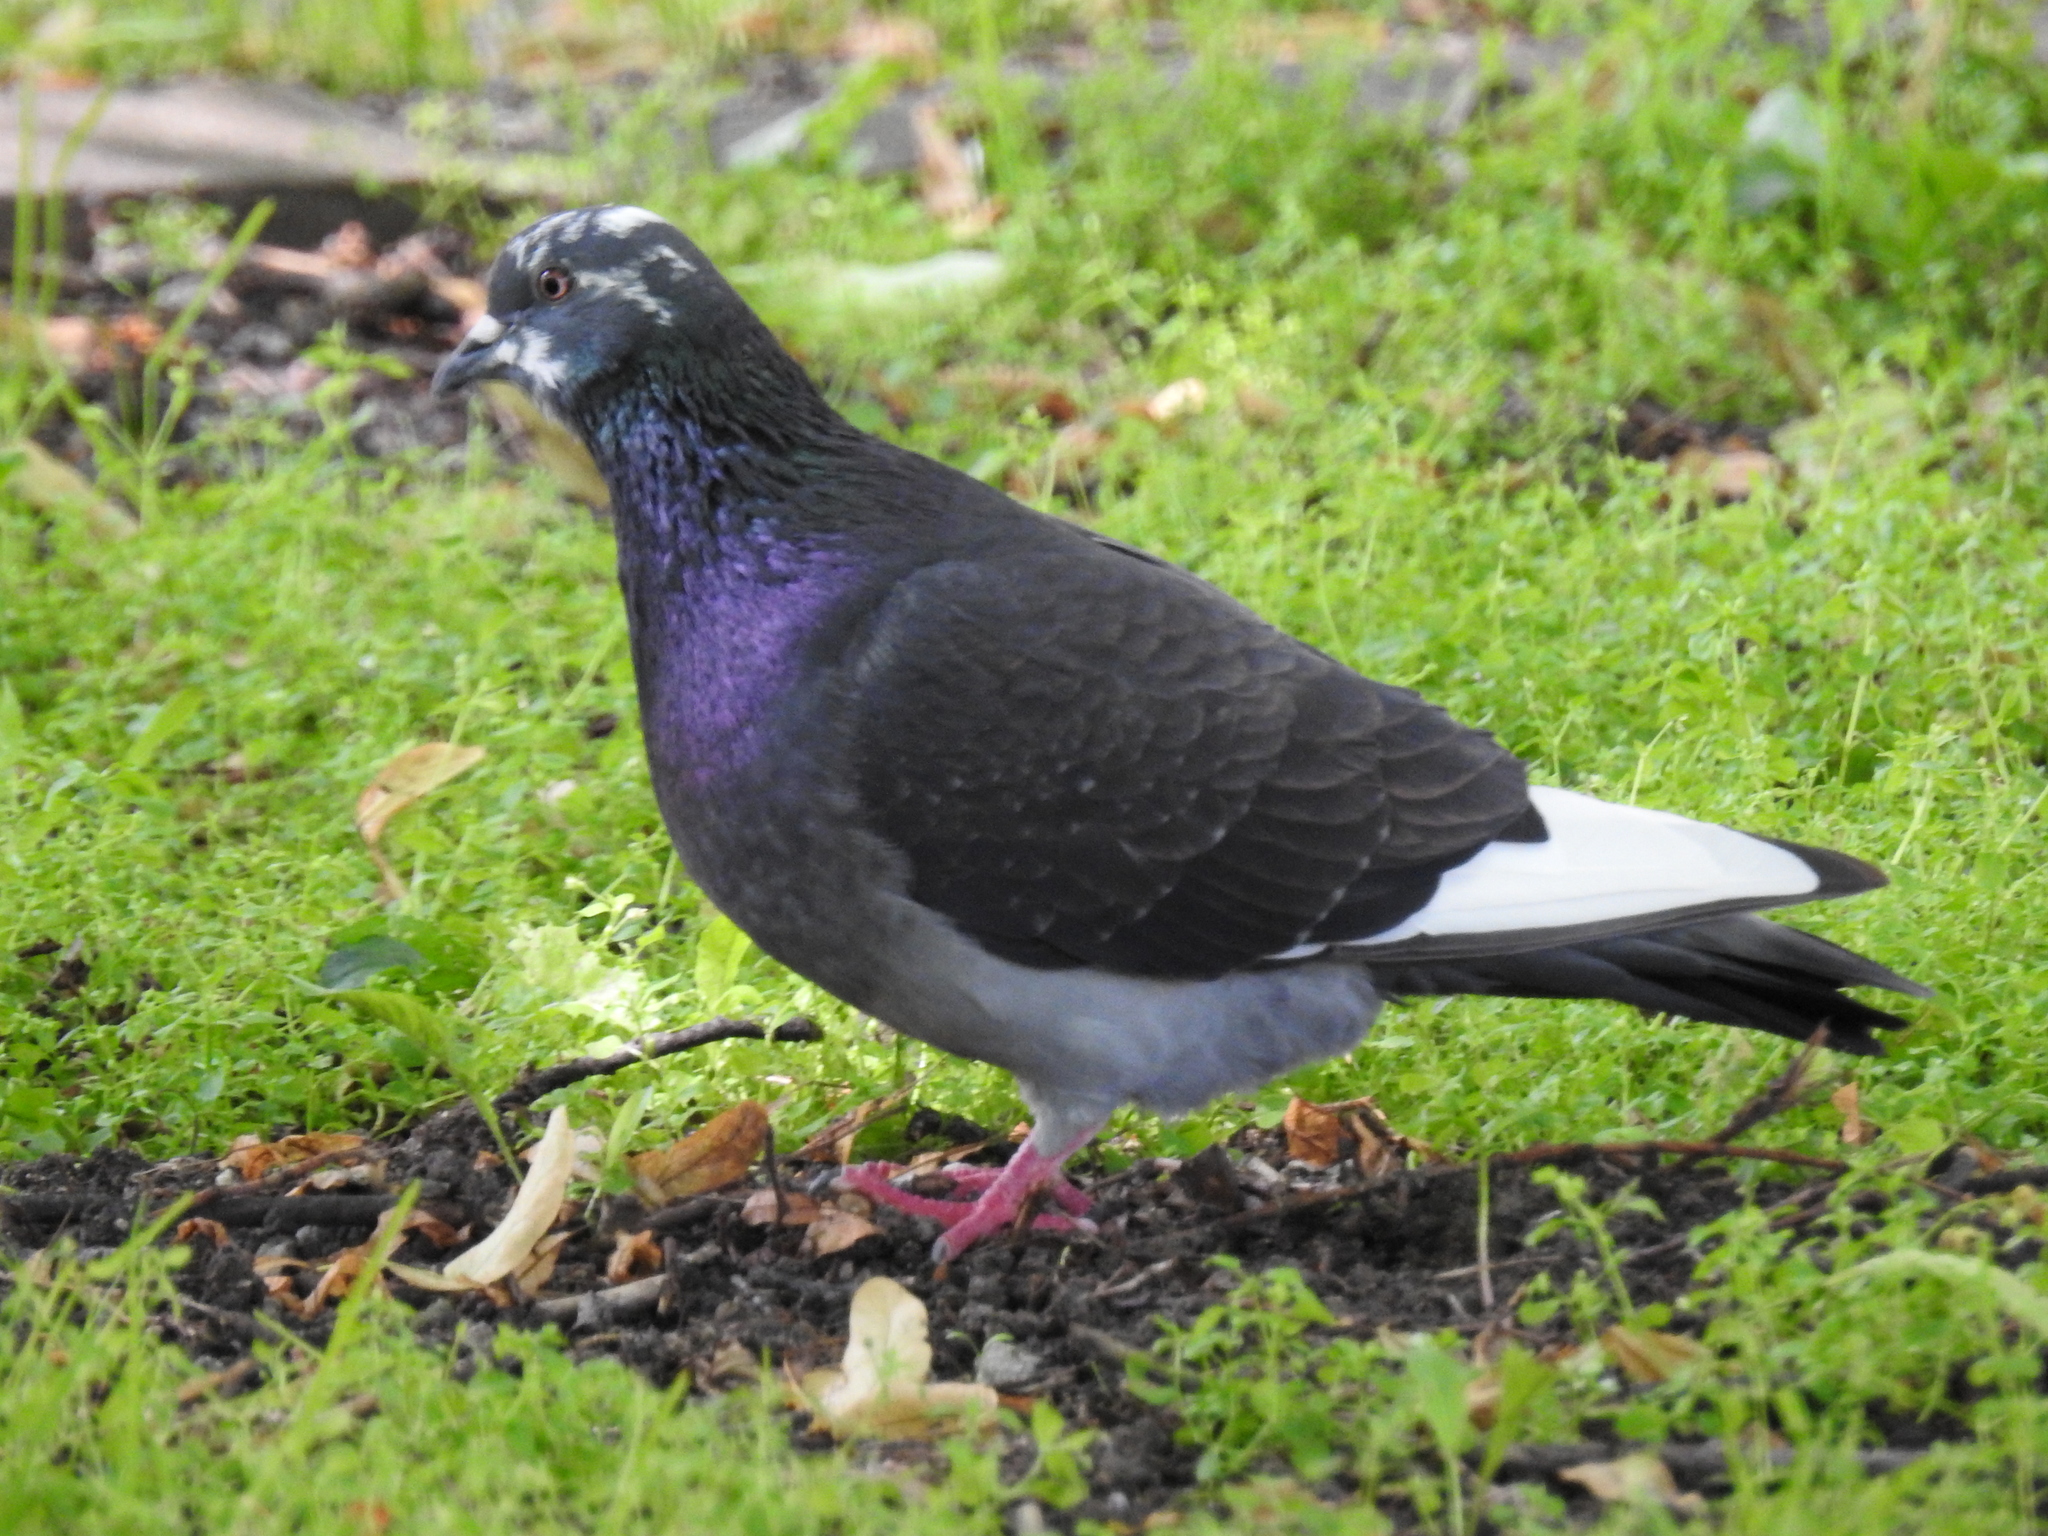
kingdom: Animalia
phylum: Chordata
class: Aves
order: Columbiformes
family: Columbidae
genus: Columba
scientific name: Columba livia
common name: Rock pigeon
